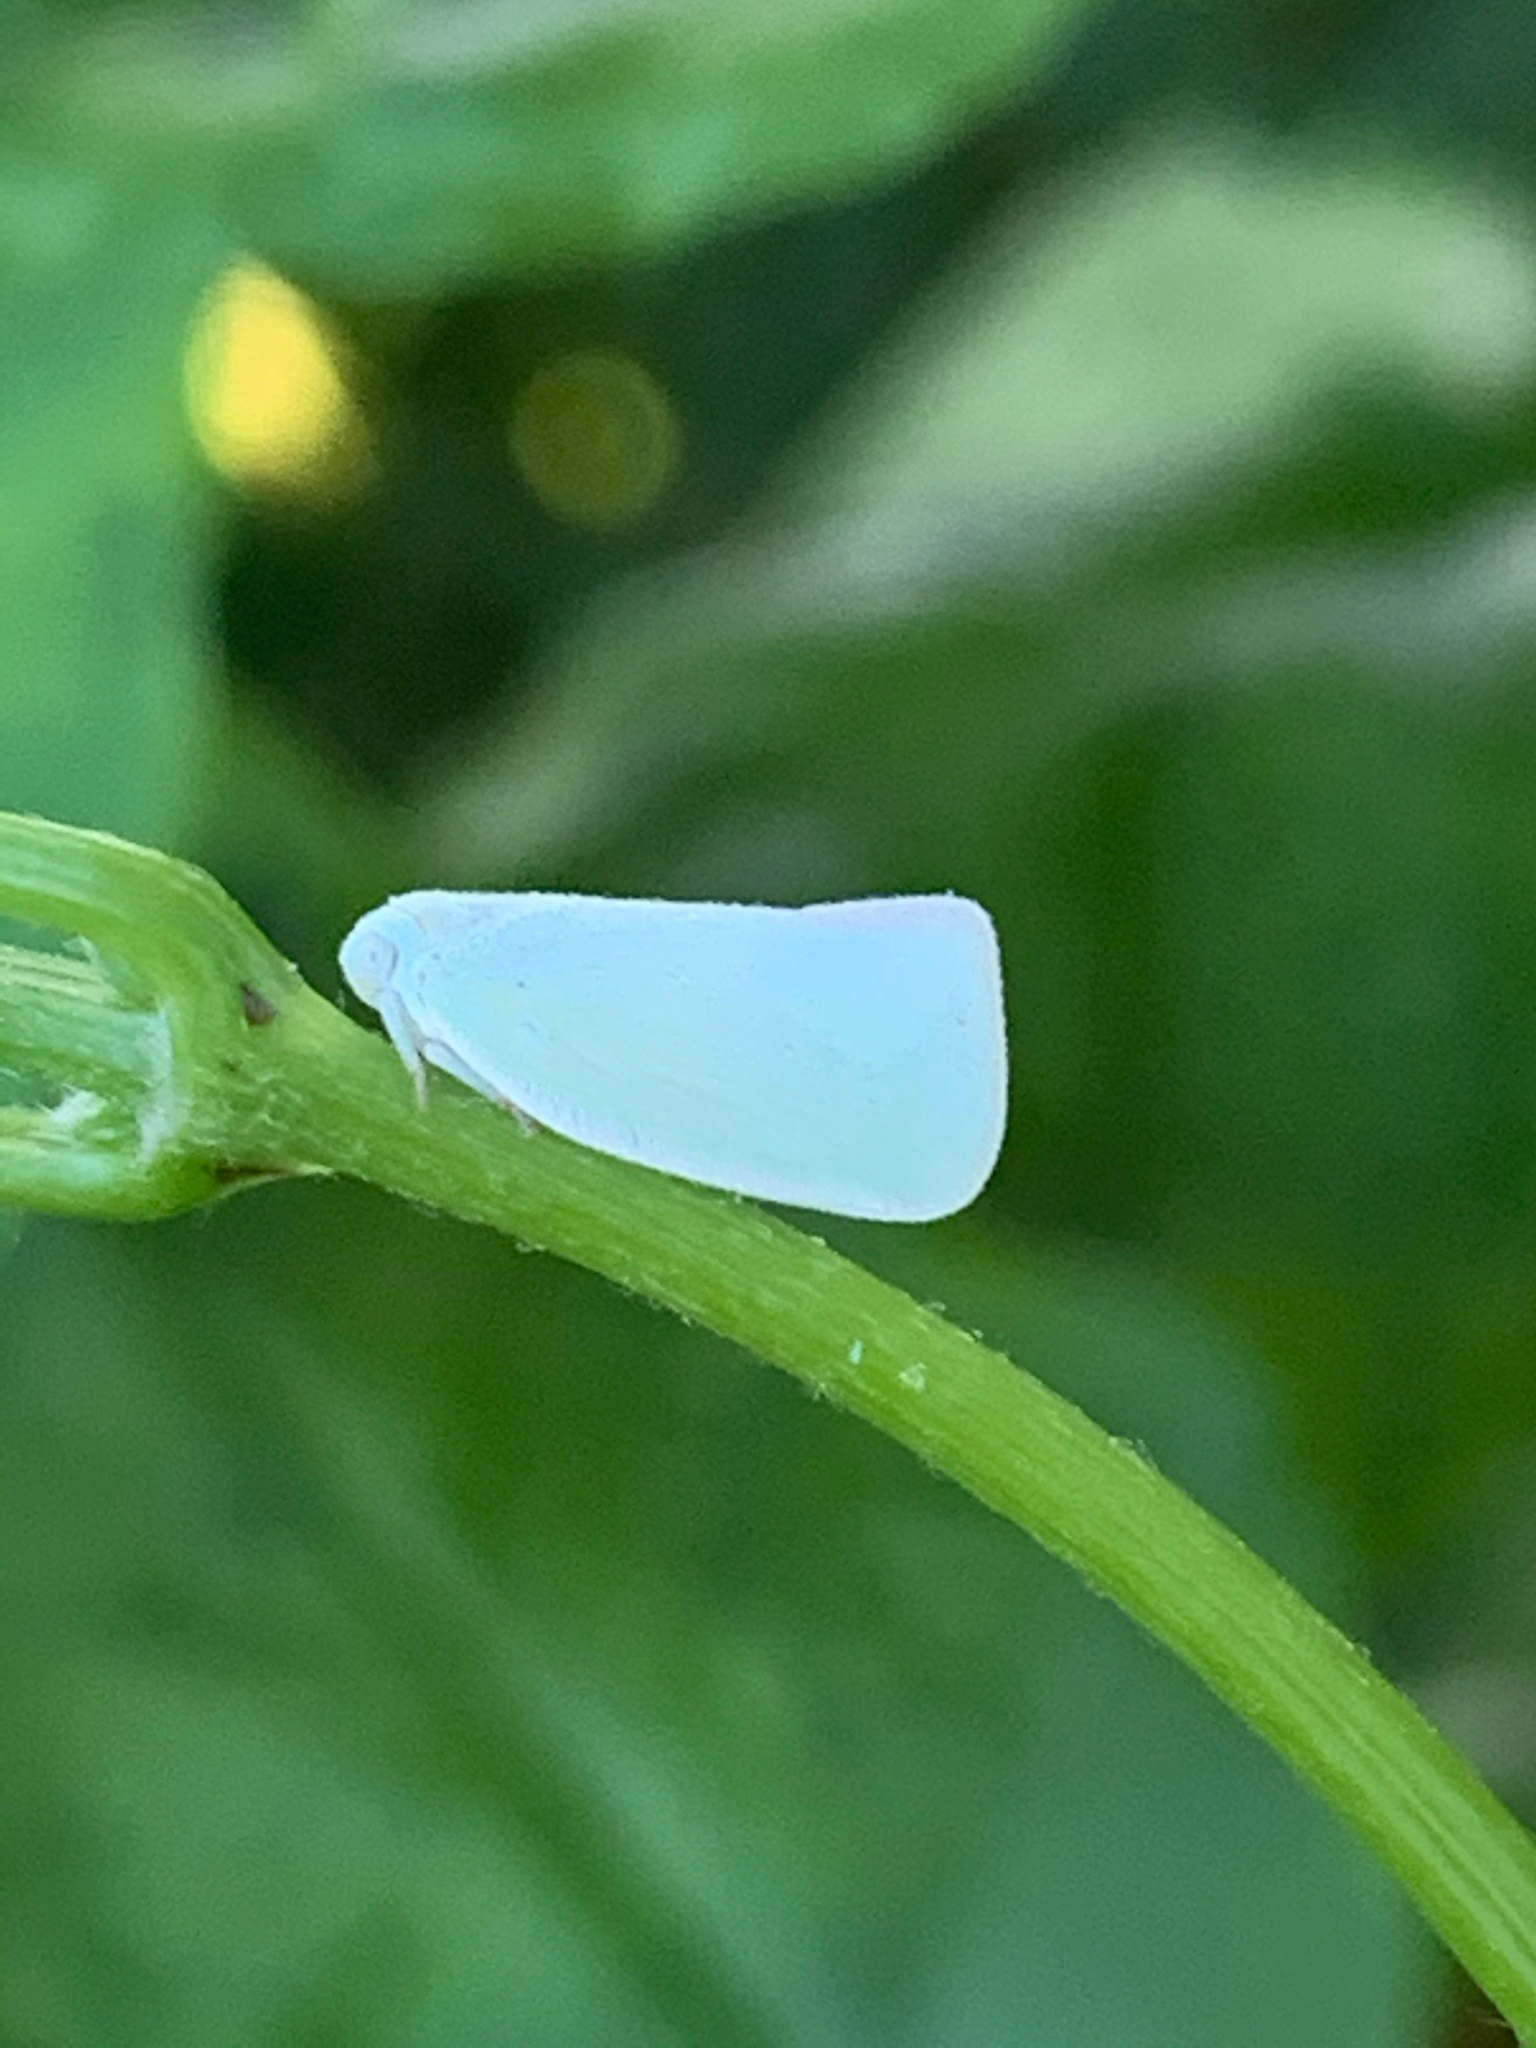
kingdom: Animalia
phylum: Arthropoda
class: Insecta
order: Hemiptera
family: Flatidae
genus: Flatormenis
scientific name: Flatormenis proxima
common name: Northern flatid planthopper
